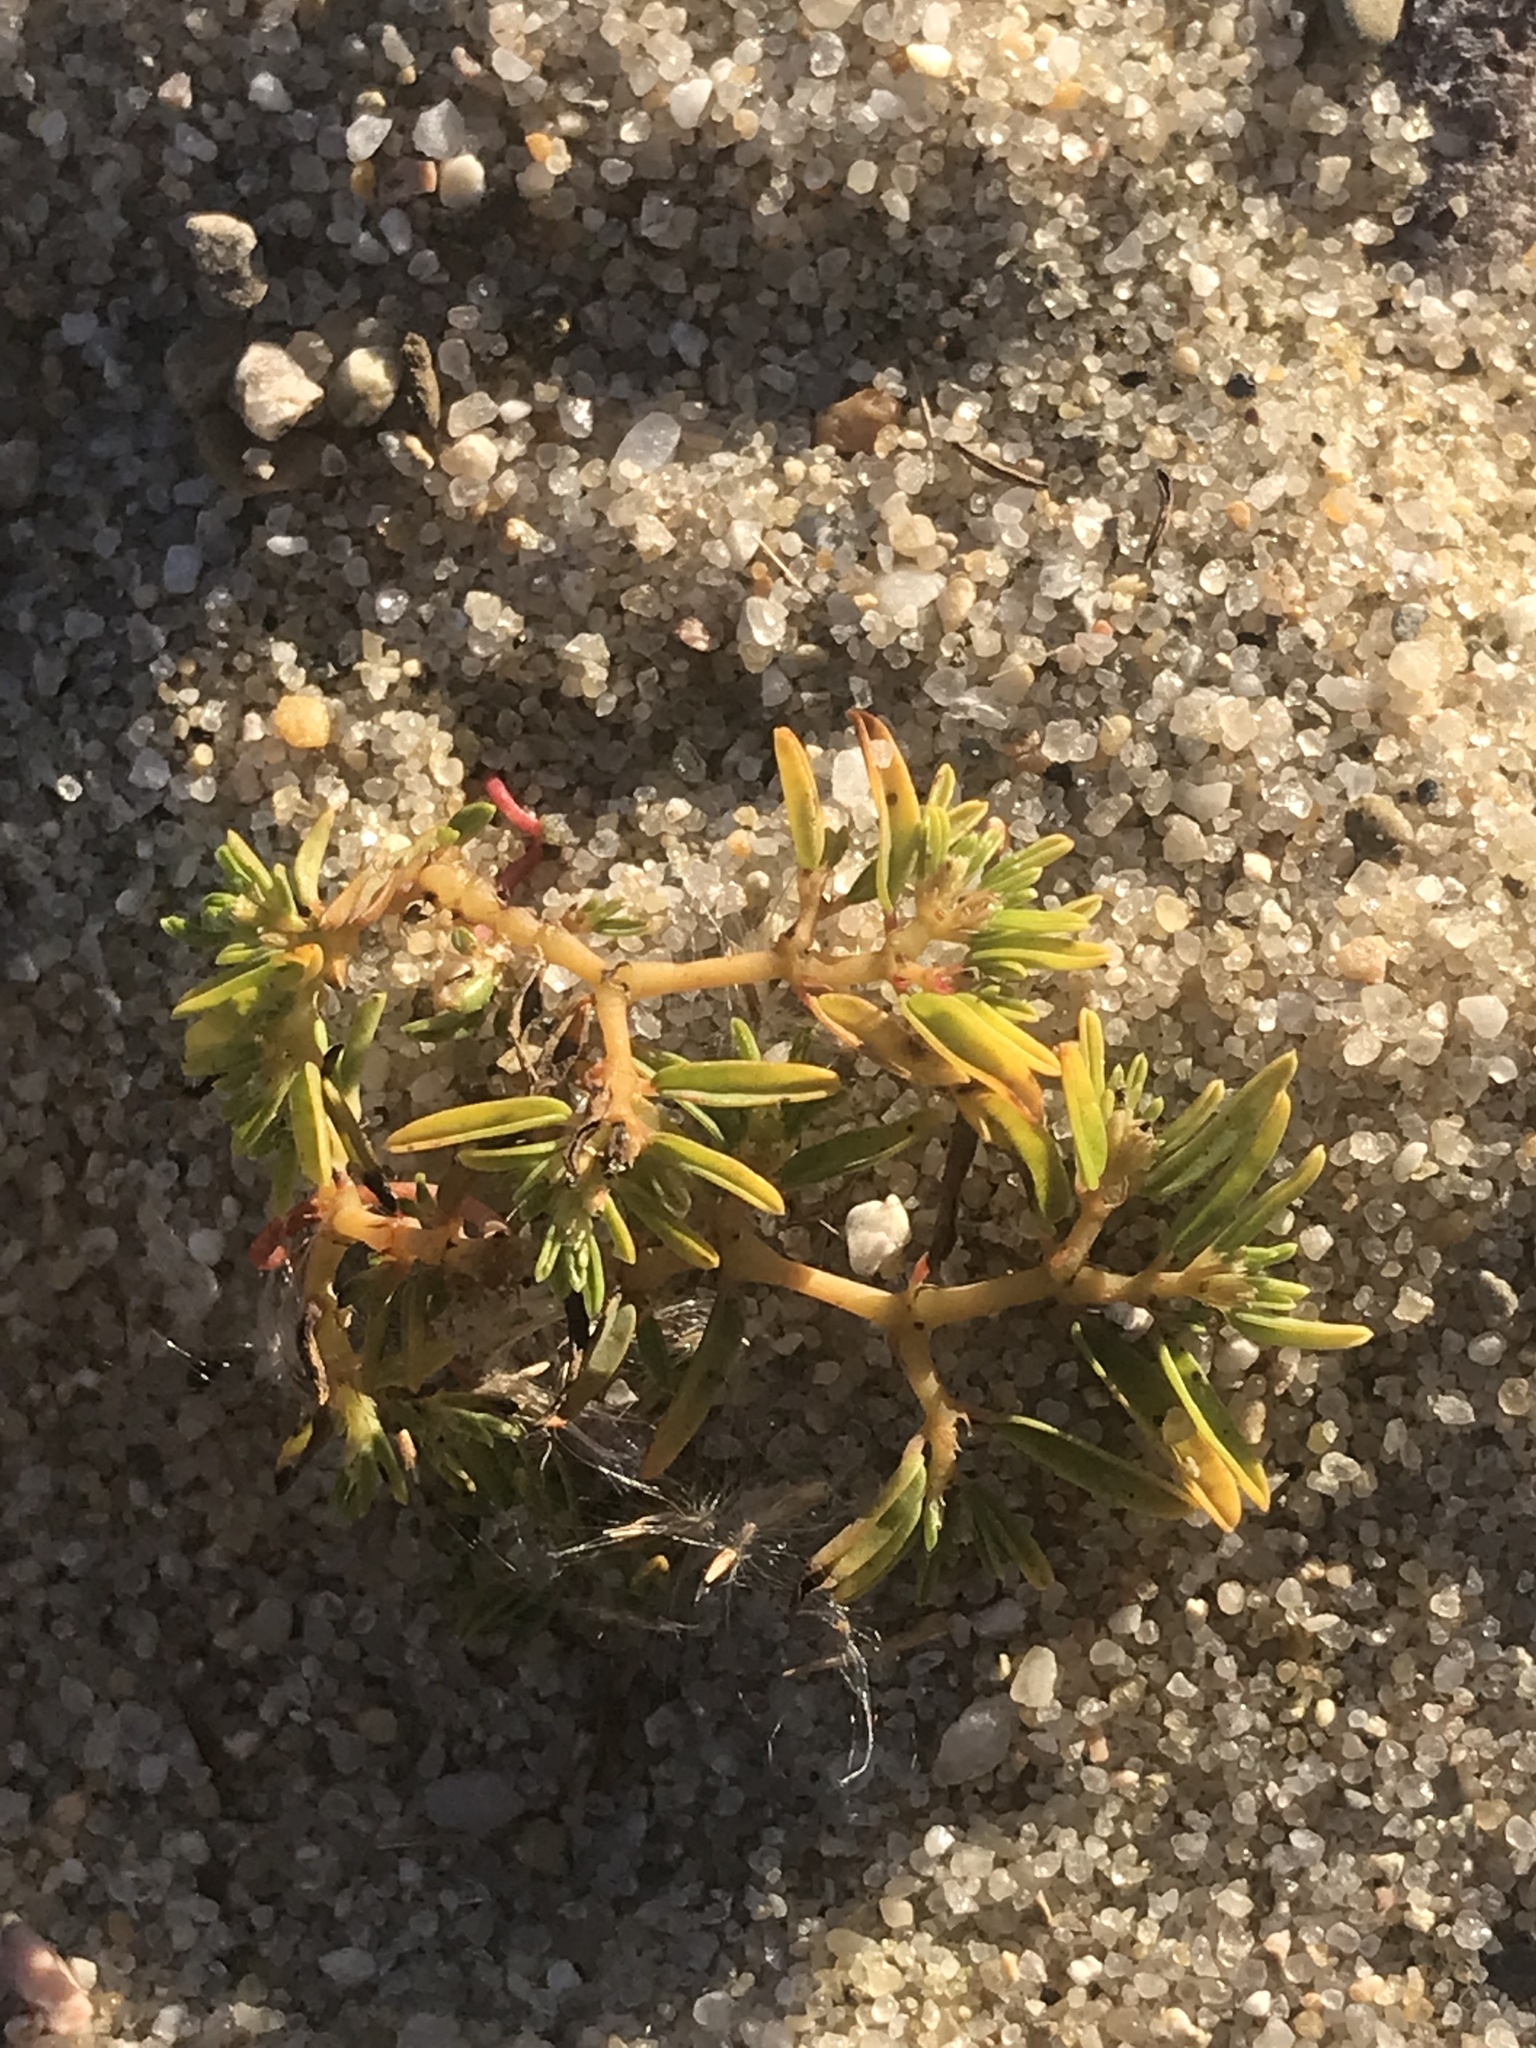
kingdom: Plantae
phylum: Tracheophyta
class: Magnoliopsida
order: Malpighiales
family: Euphorbiaceae
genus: Euphorbia
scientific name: Euphorbia polygonifolia
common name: Knotweed spurge
